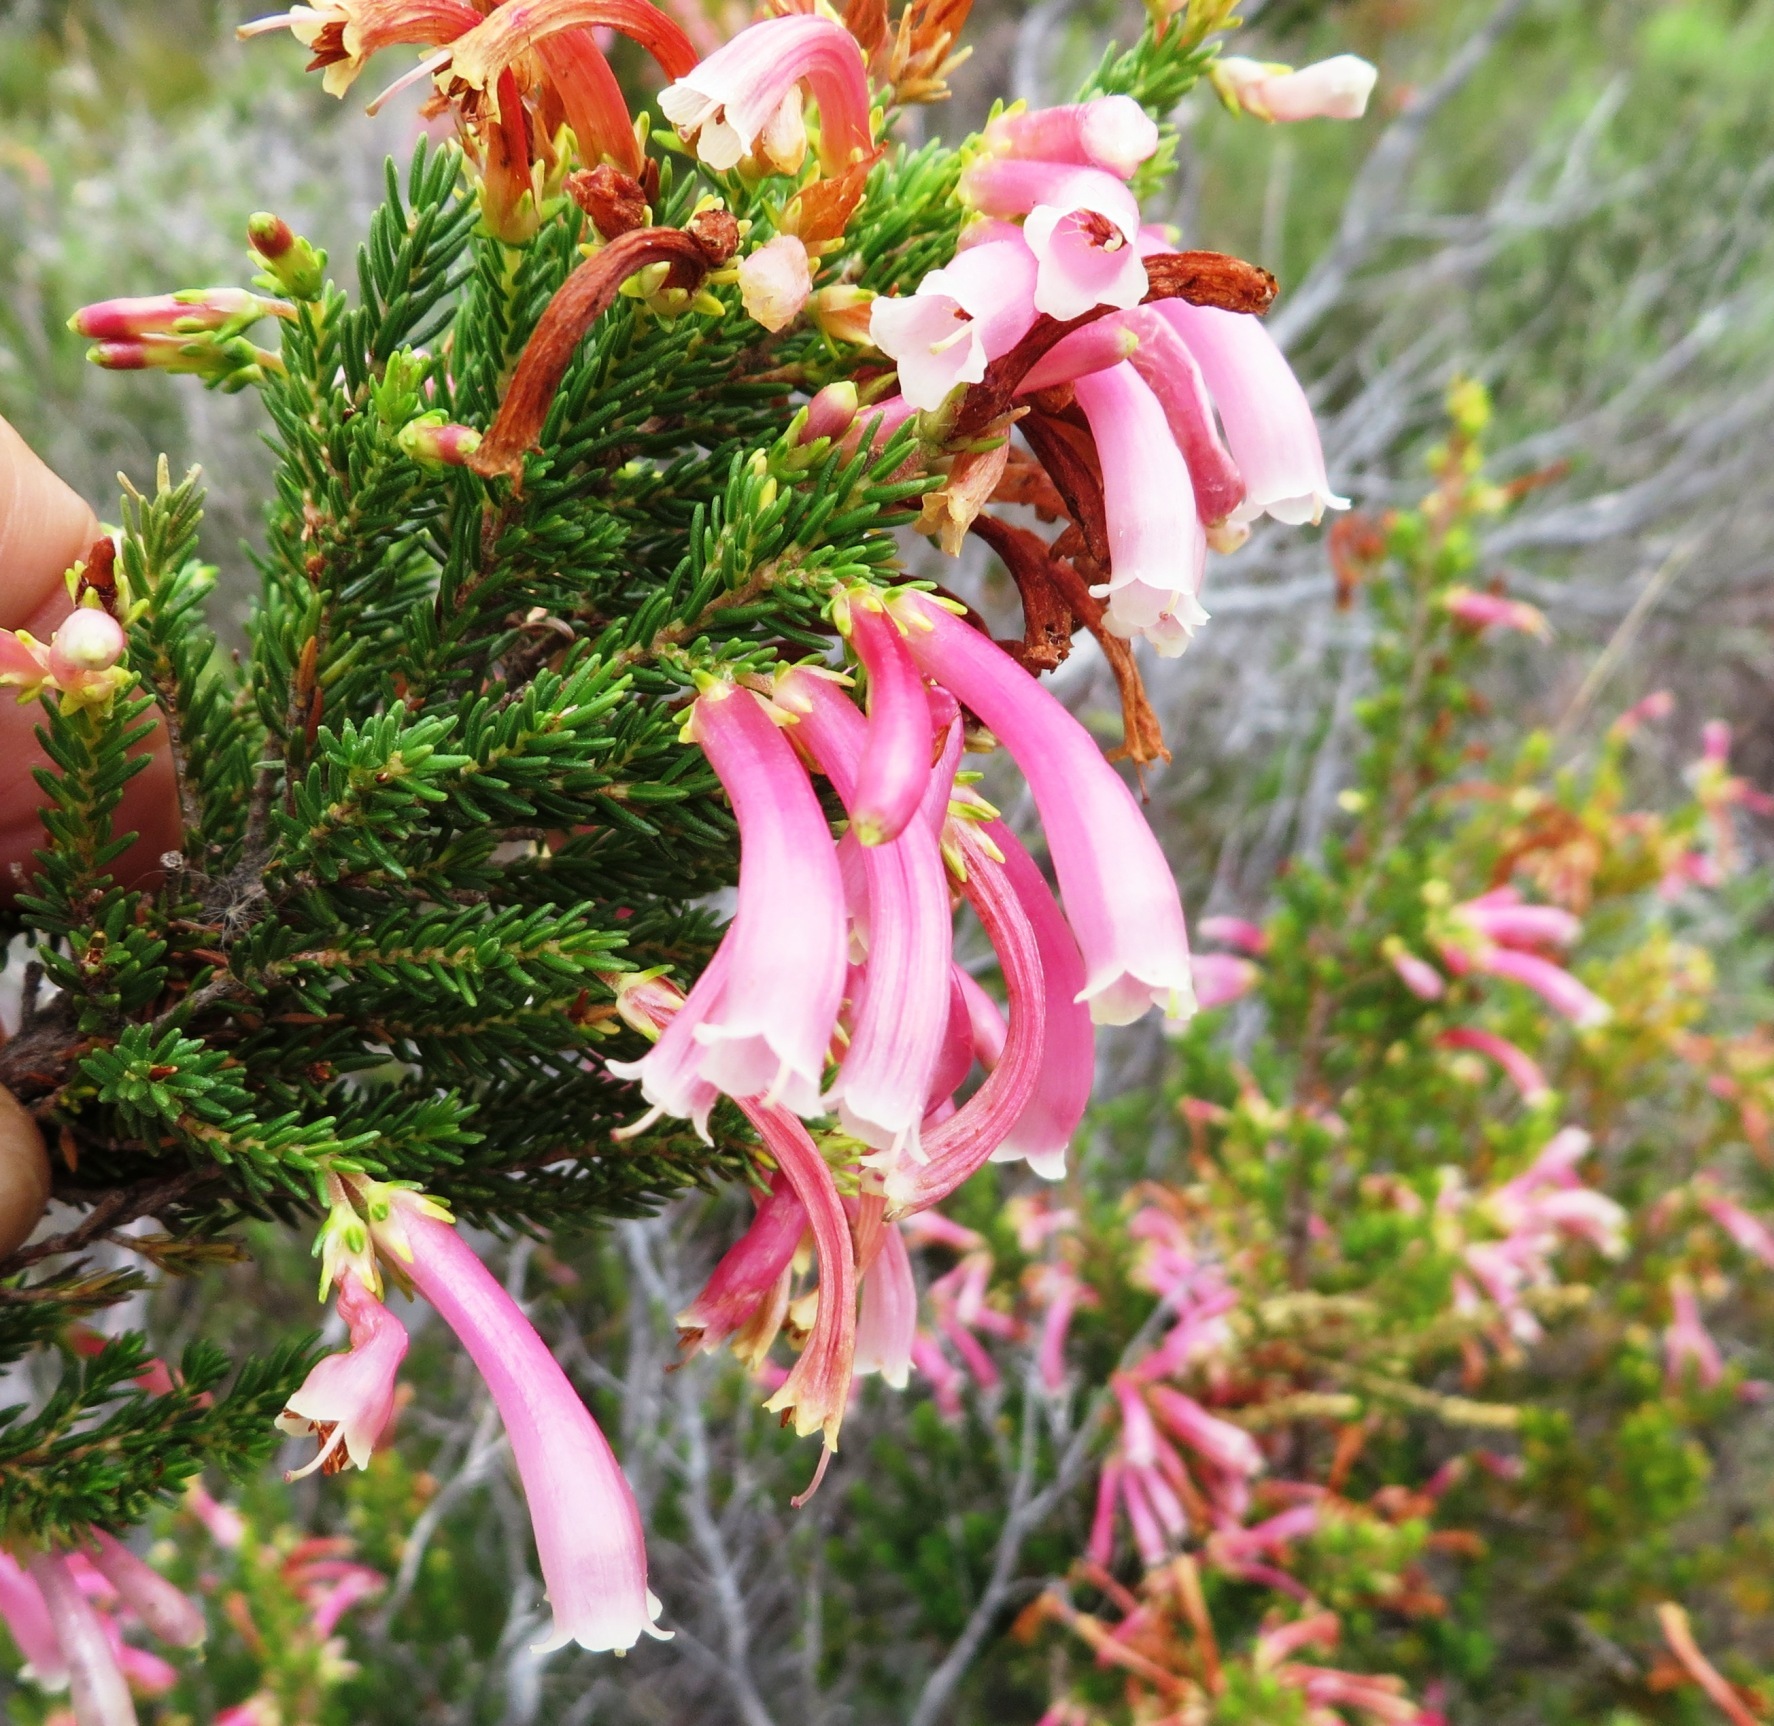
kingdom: Plantae
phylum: Tracheophyta
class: Magnoliopsida
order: Ericales
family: Ericaceae
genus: Erica
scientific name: Erica discolor
